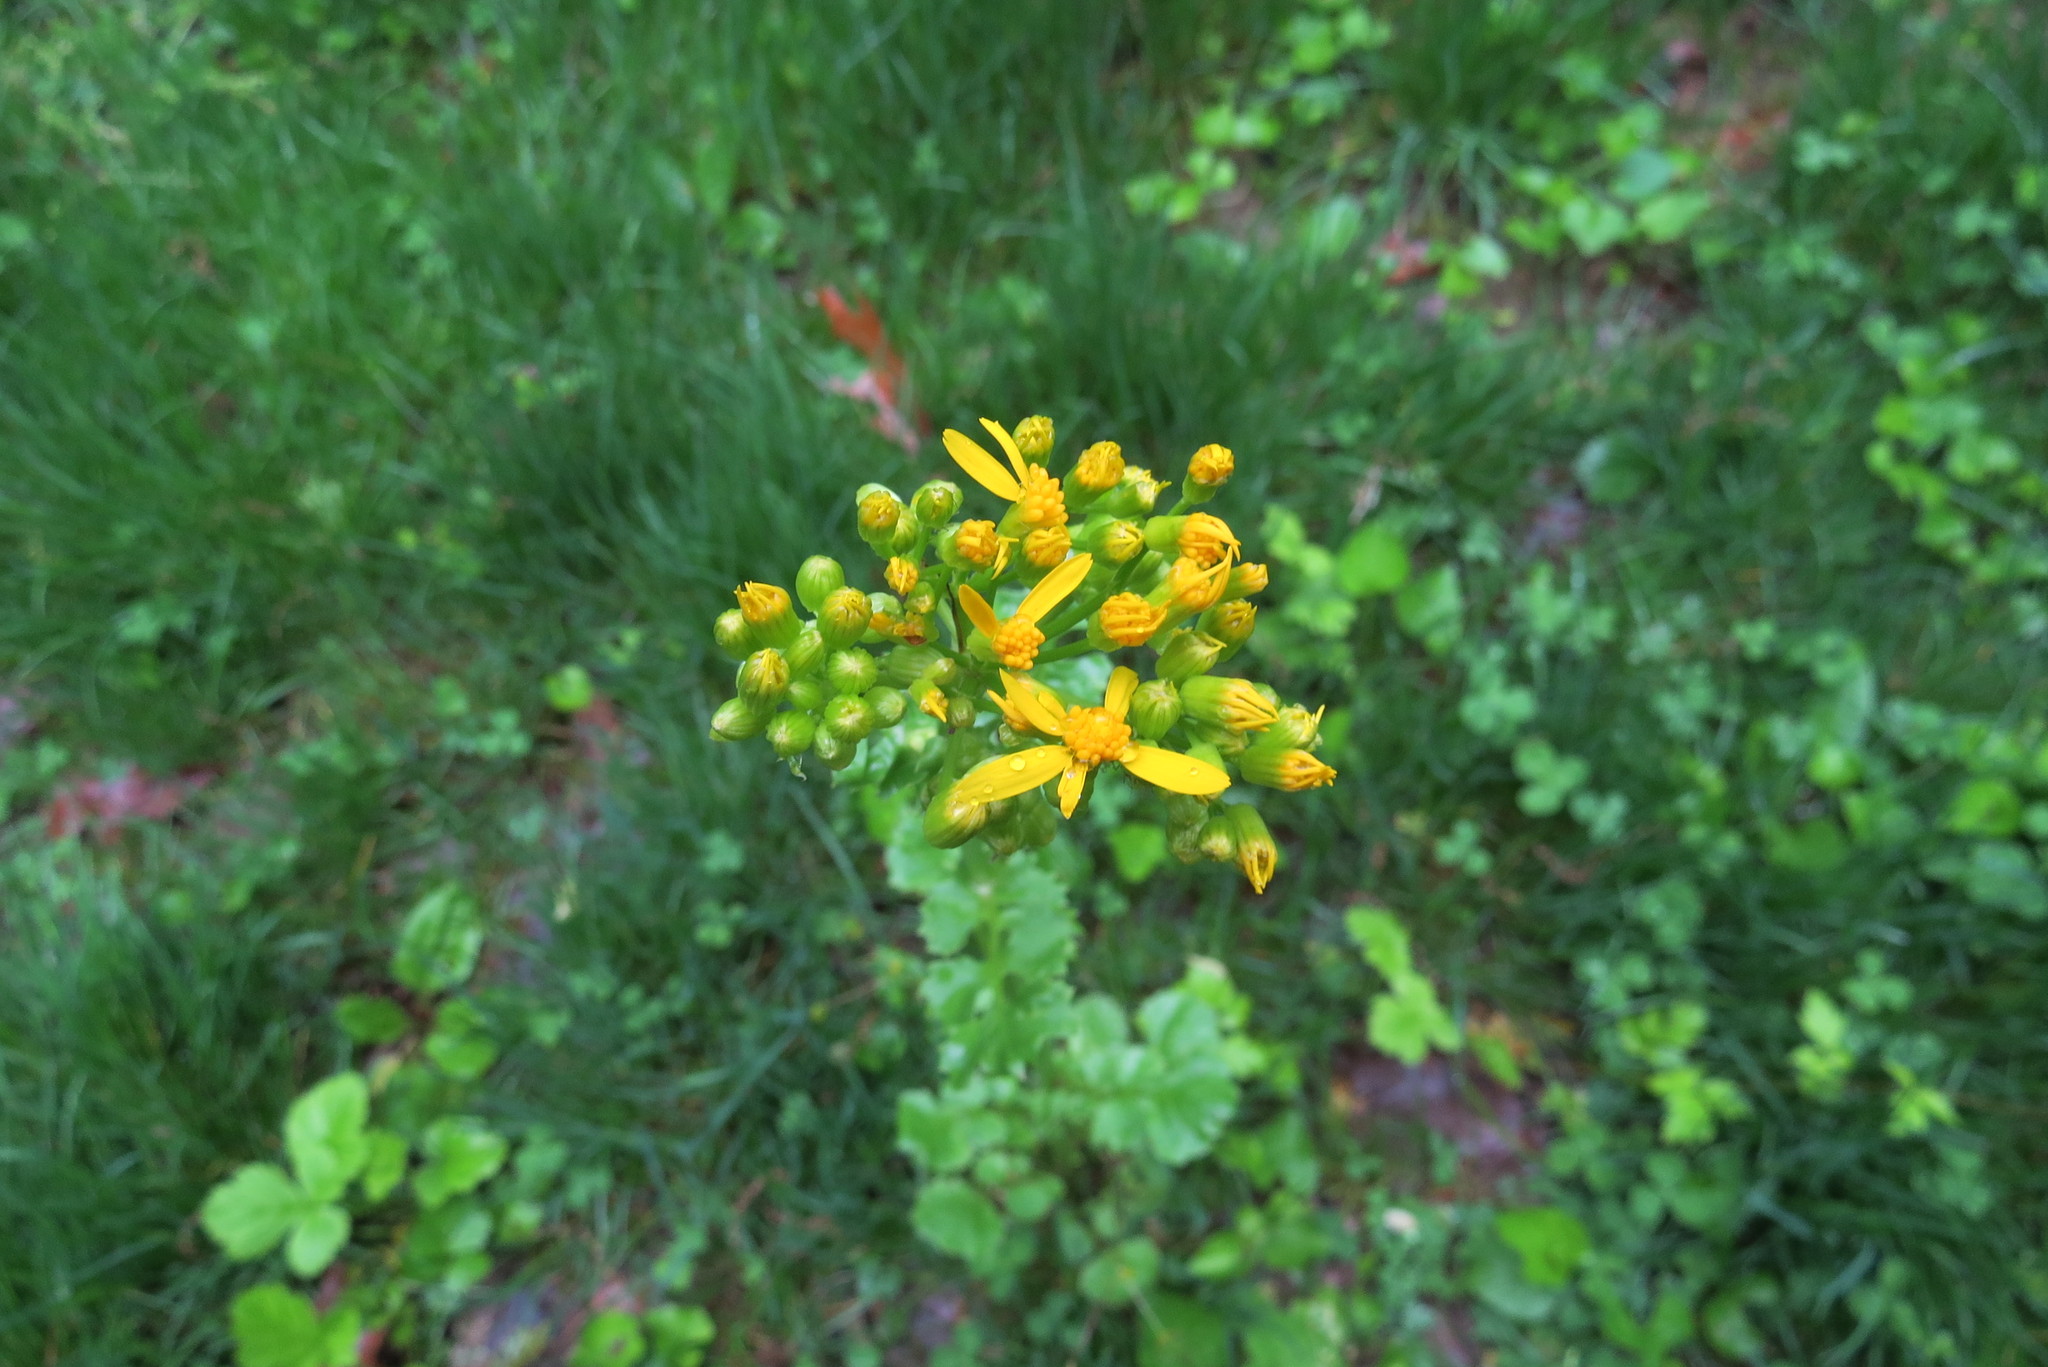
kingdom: Plantae
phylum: Tracheophyta
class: Magnoliopsida
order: Asterales
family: Asteraceae
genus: Packera
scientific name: Packera glabella
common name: Butterweed
